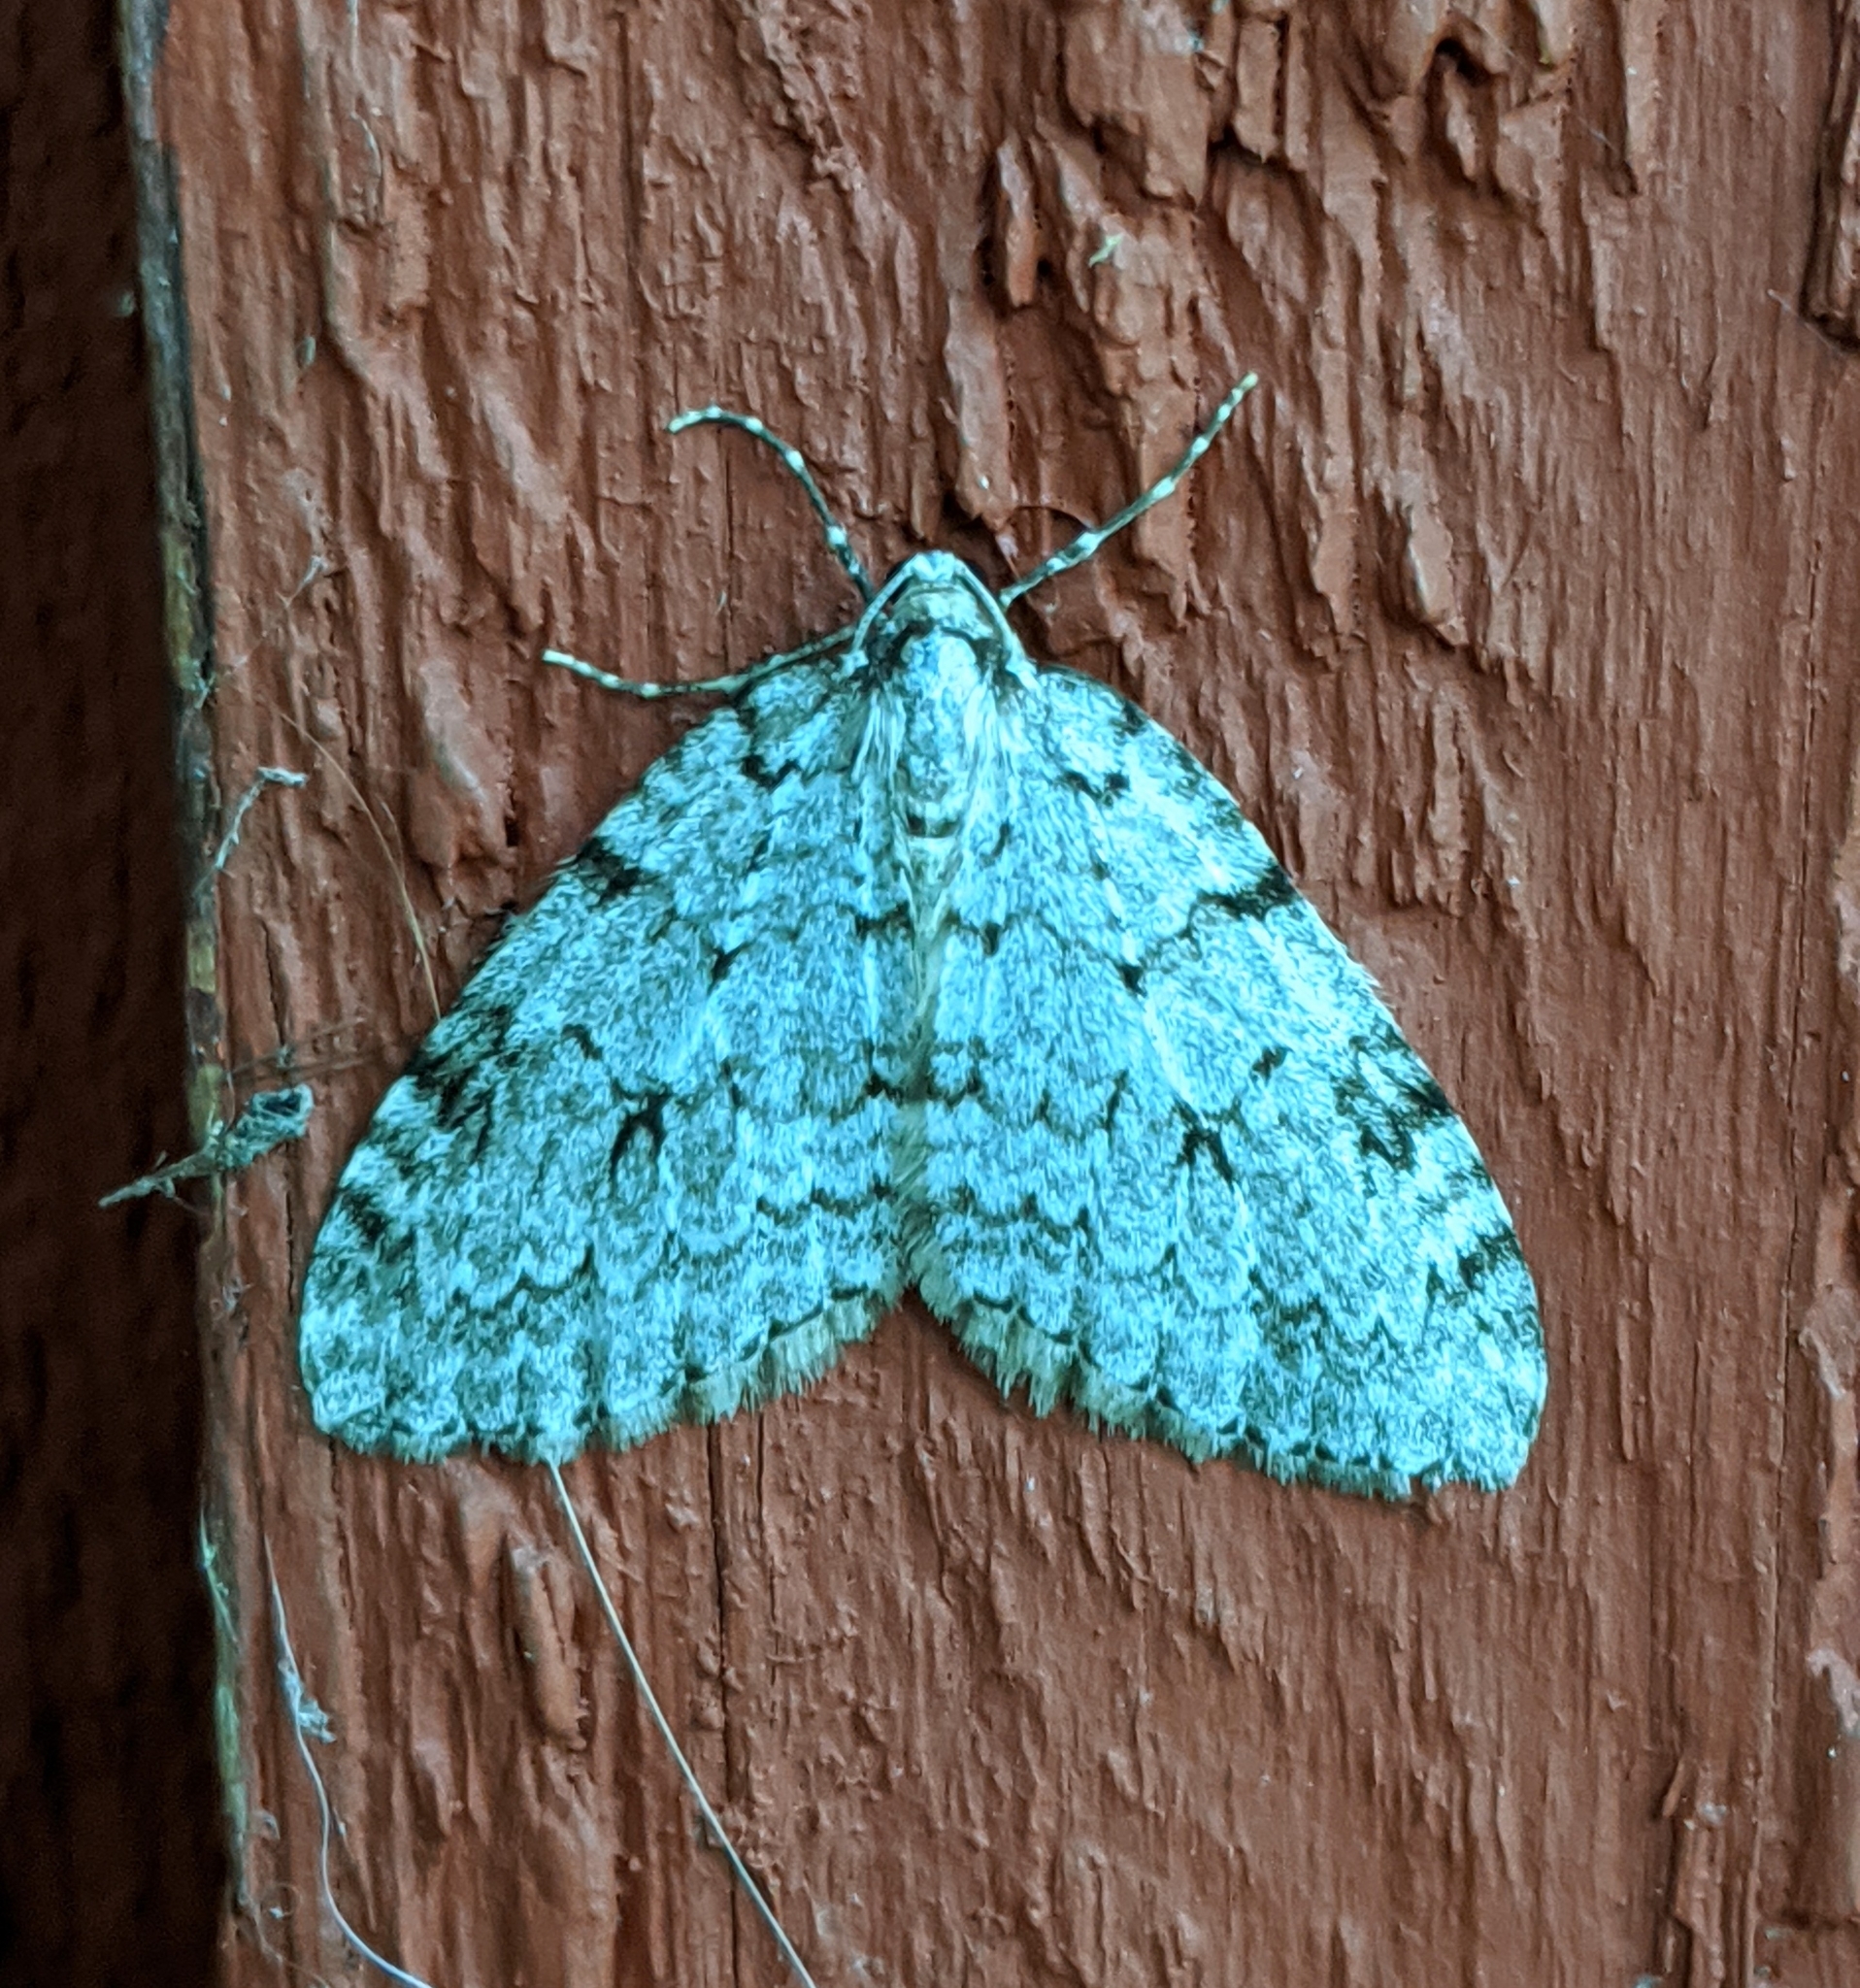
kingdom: Animalia
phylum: Arthropoda
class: Insecta
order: Lepidoptera
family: Geometridae
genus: Epirrita
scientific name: Epirrita autumnata
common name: Autumnal moth
